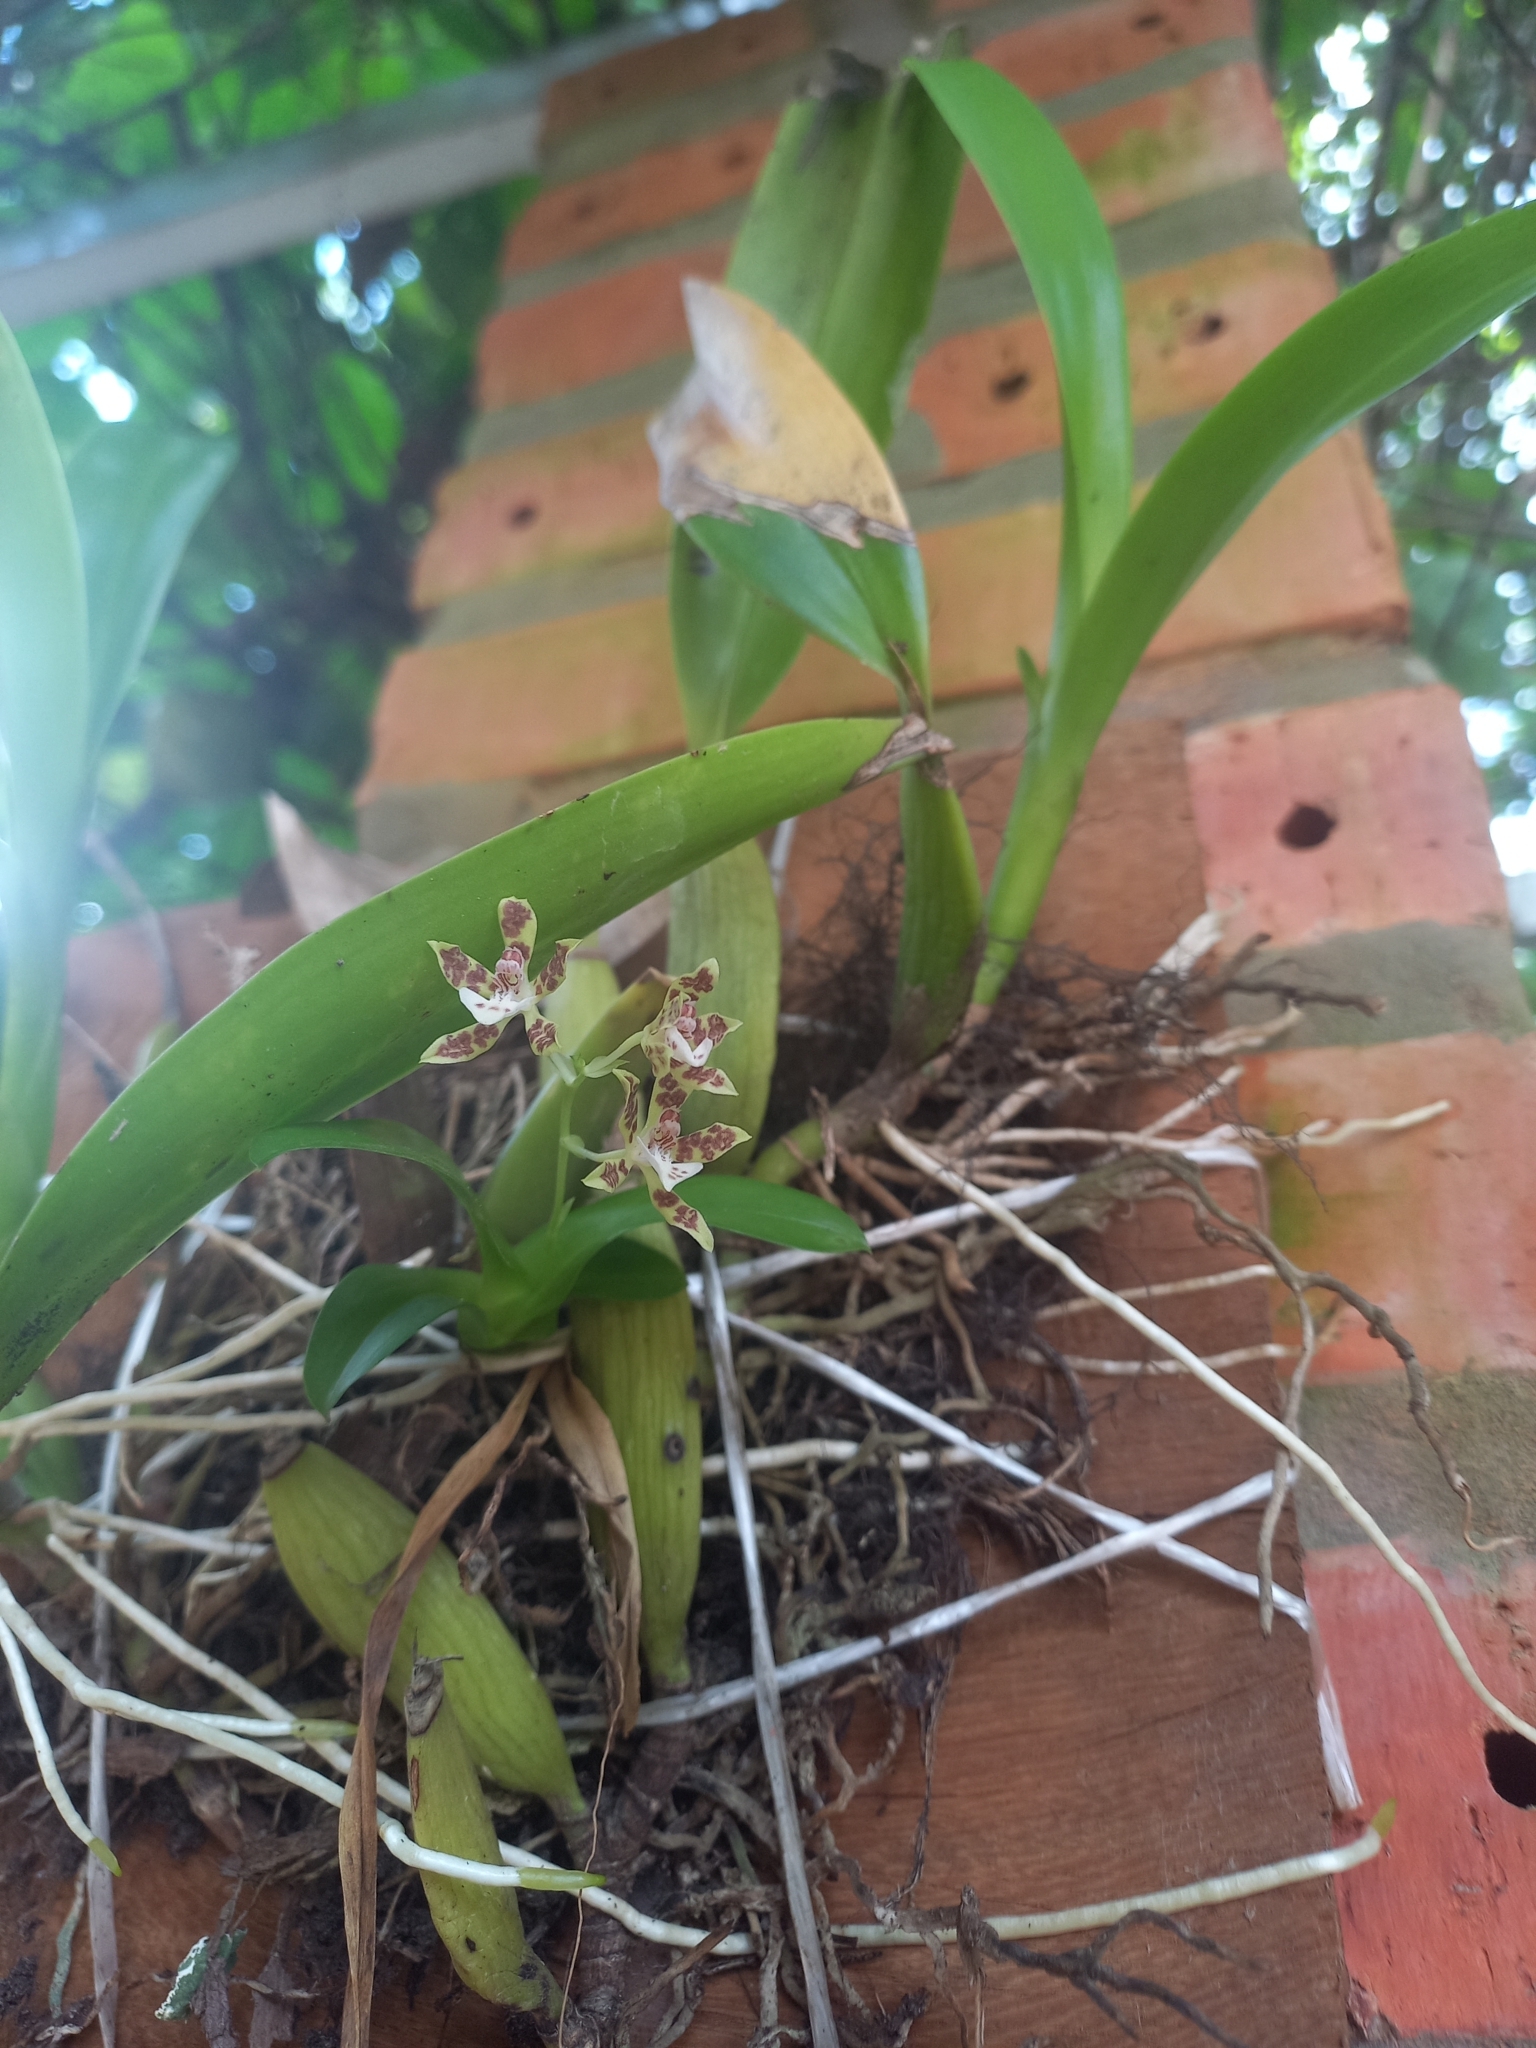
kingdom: Plantae
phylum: Tracheophyta
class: Liliopsida
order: Asparagales
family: Orchidaceae
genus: Solenidium
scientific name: Solenidium lunatum
